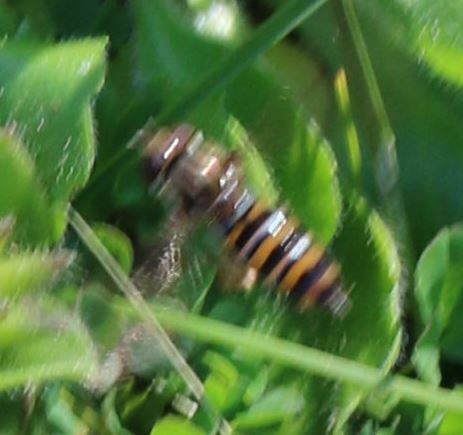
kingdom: Animalia
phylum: Arthropoda
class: Insecta
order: Diptera
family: Syrphidae
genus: Episyrphus
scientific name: Episyrphus balteatus
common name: Marmalade hoverfly
